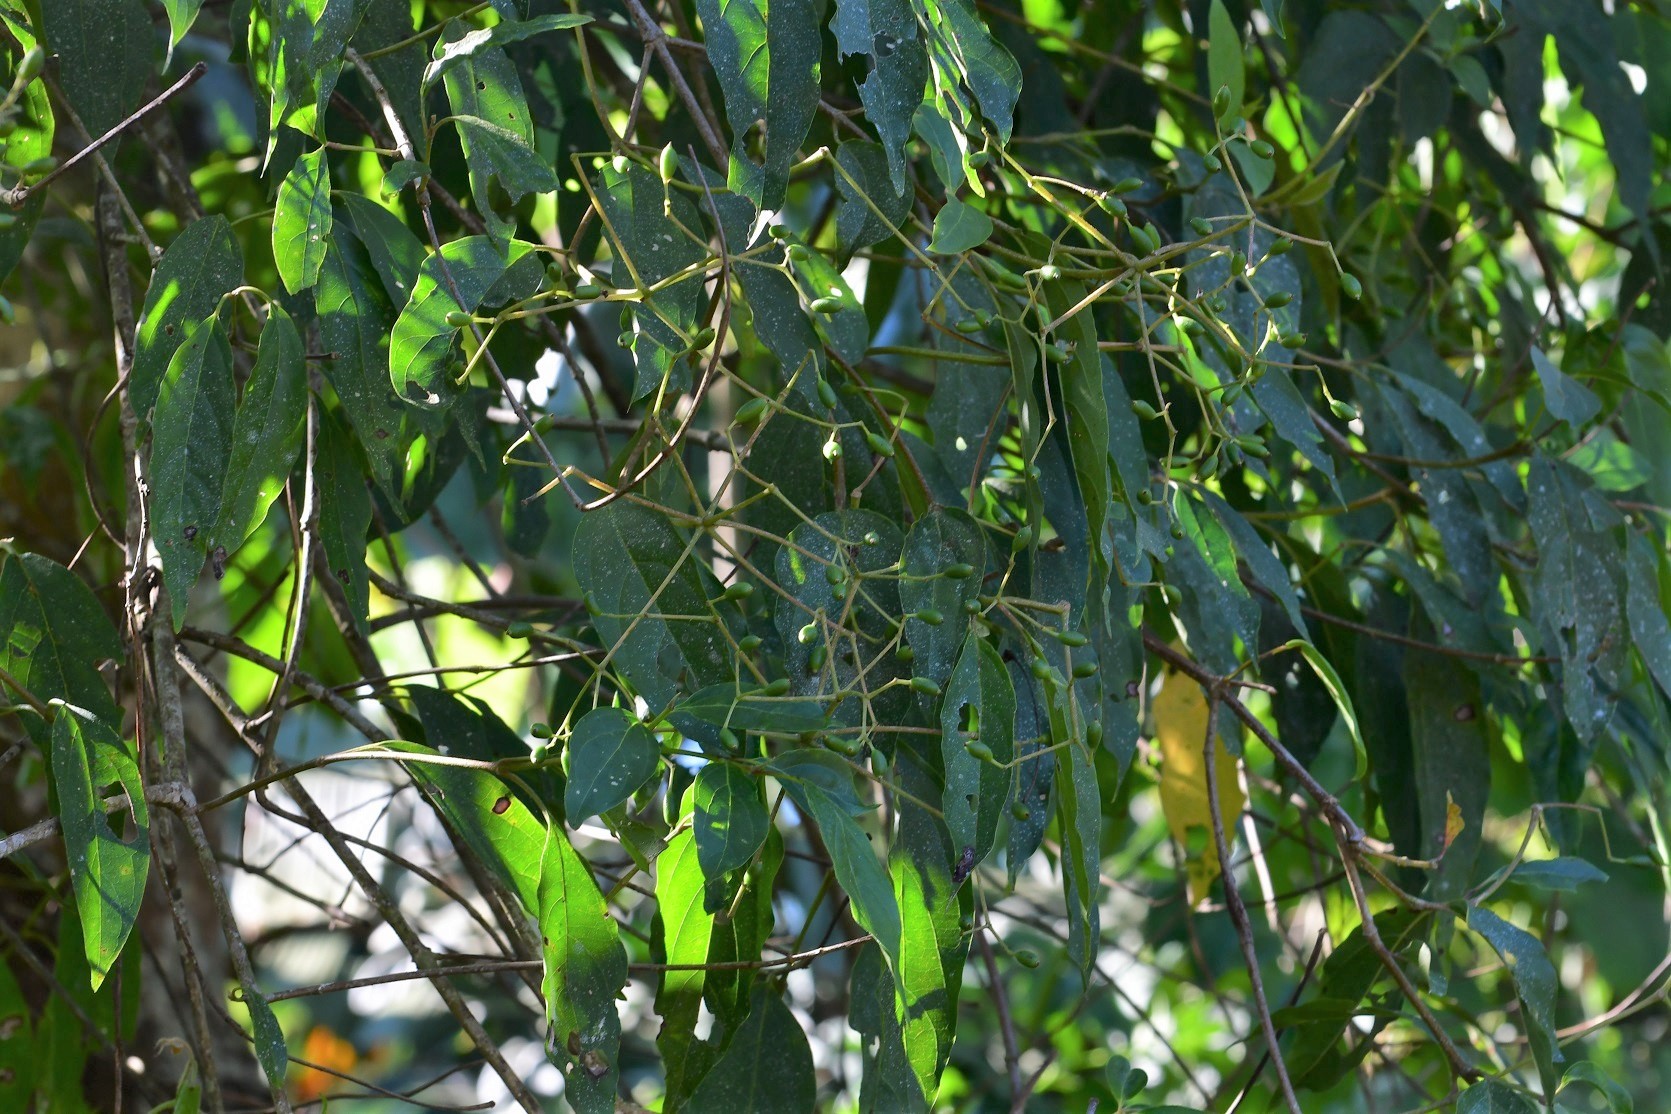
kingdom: Plantae
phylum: Tracheophyta
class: Magnoliopsida
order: Dipsacales
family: Viburnaceae
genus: Viburnum
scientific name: Viburnum hartwegii
